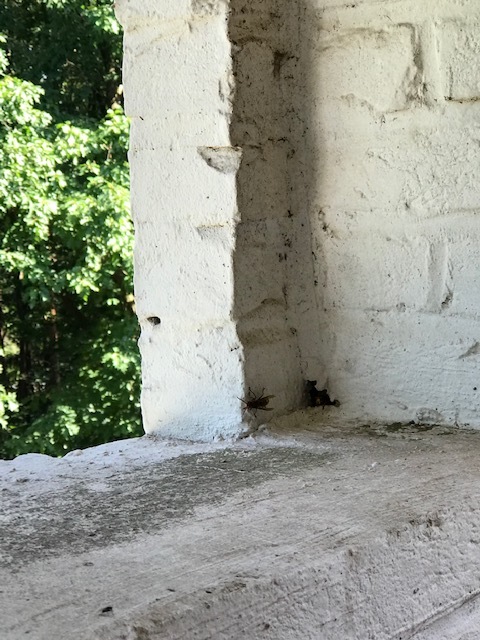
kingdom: Animalia
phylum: Arthropoda
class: Insecta
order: Hymenoptera
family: Vespidae
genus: Vespa
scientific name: Vespa crabro
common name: Hornet
